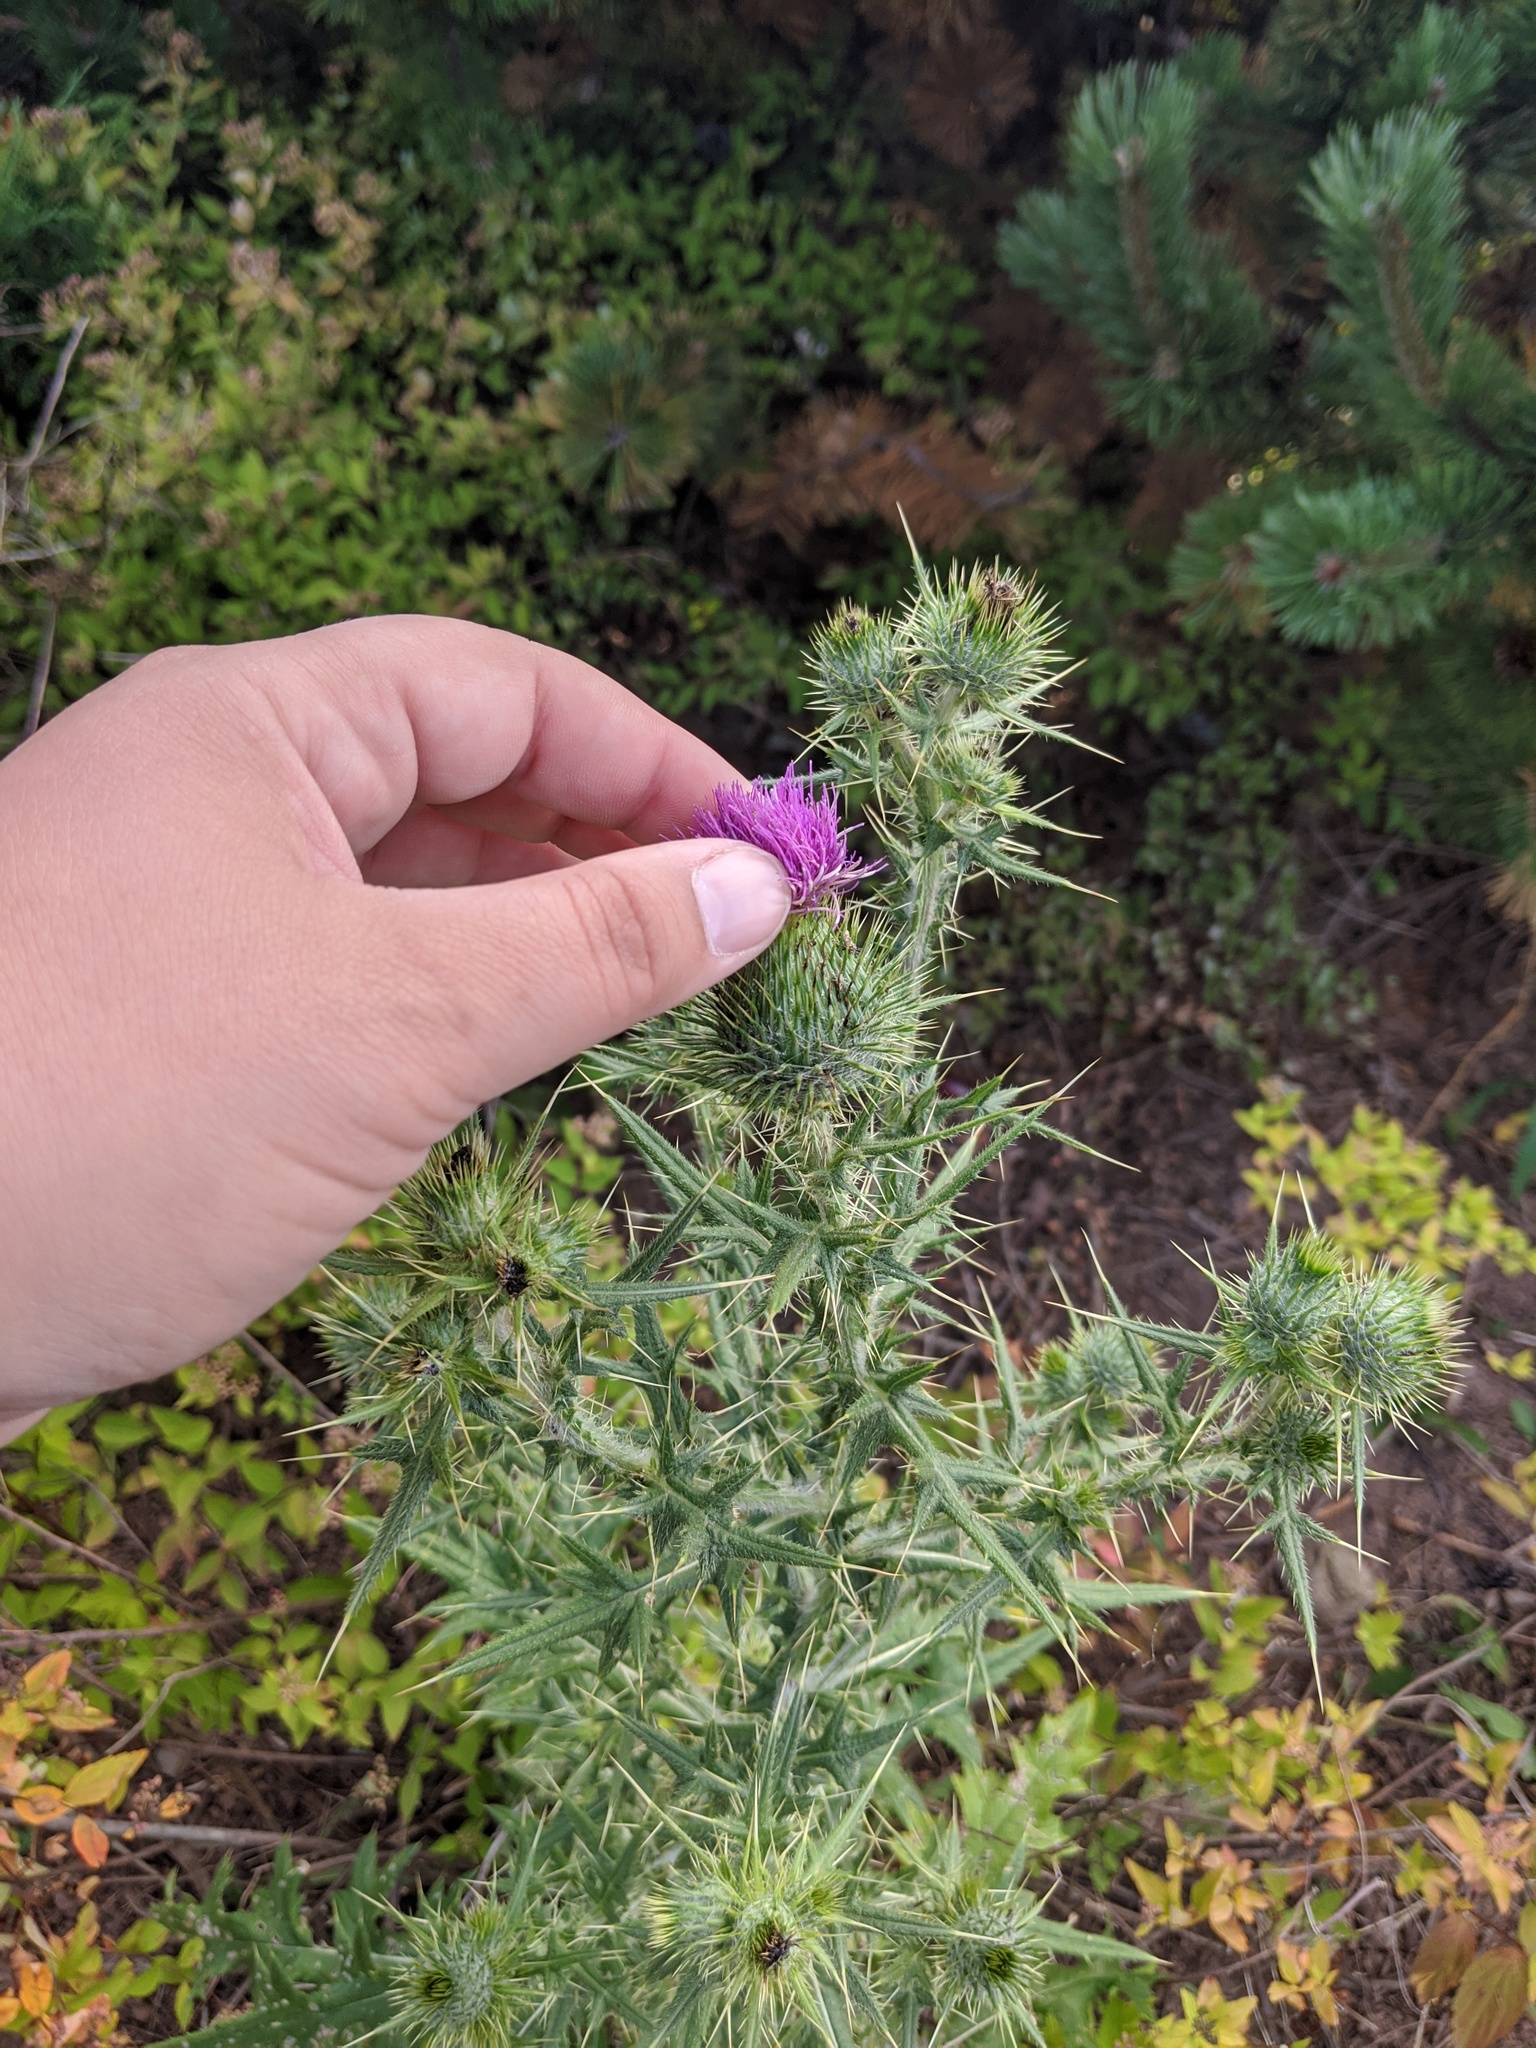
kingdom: Plantae
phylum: Tracheophyta
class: Magnoliopsida
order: Asterales
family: Asteraceae
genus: Cirsium
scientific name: Cirsium vulgare
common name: Bull thistle
